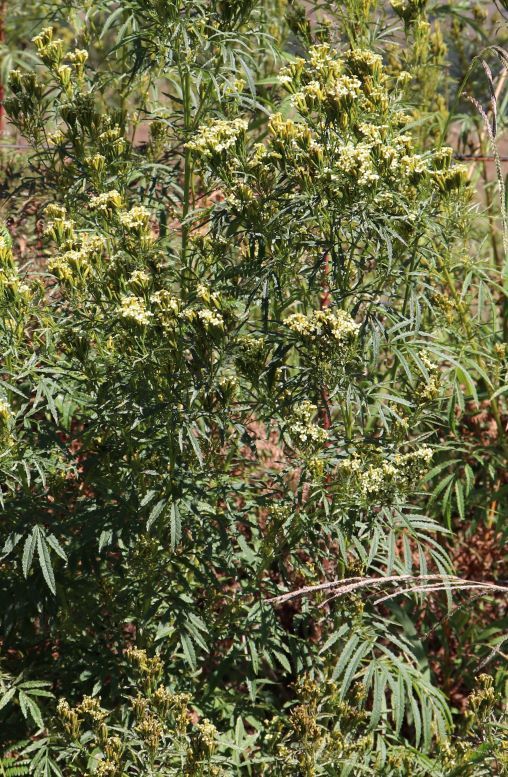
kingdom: Plantae
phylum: Tracheophyta
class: Magnoliopsida
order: Asterales
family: Asteraceae
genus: Tagetes
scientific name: Tagetes minuta
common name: Muster john henry
